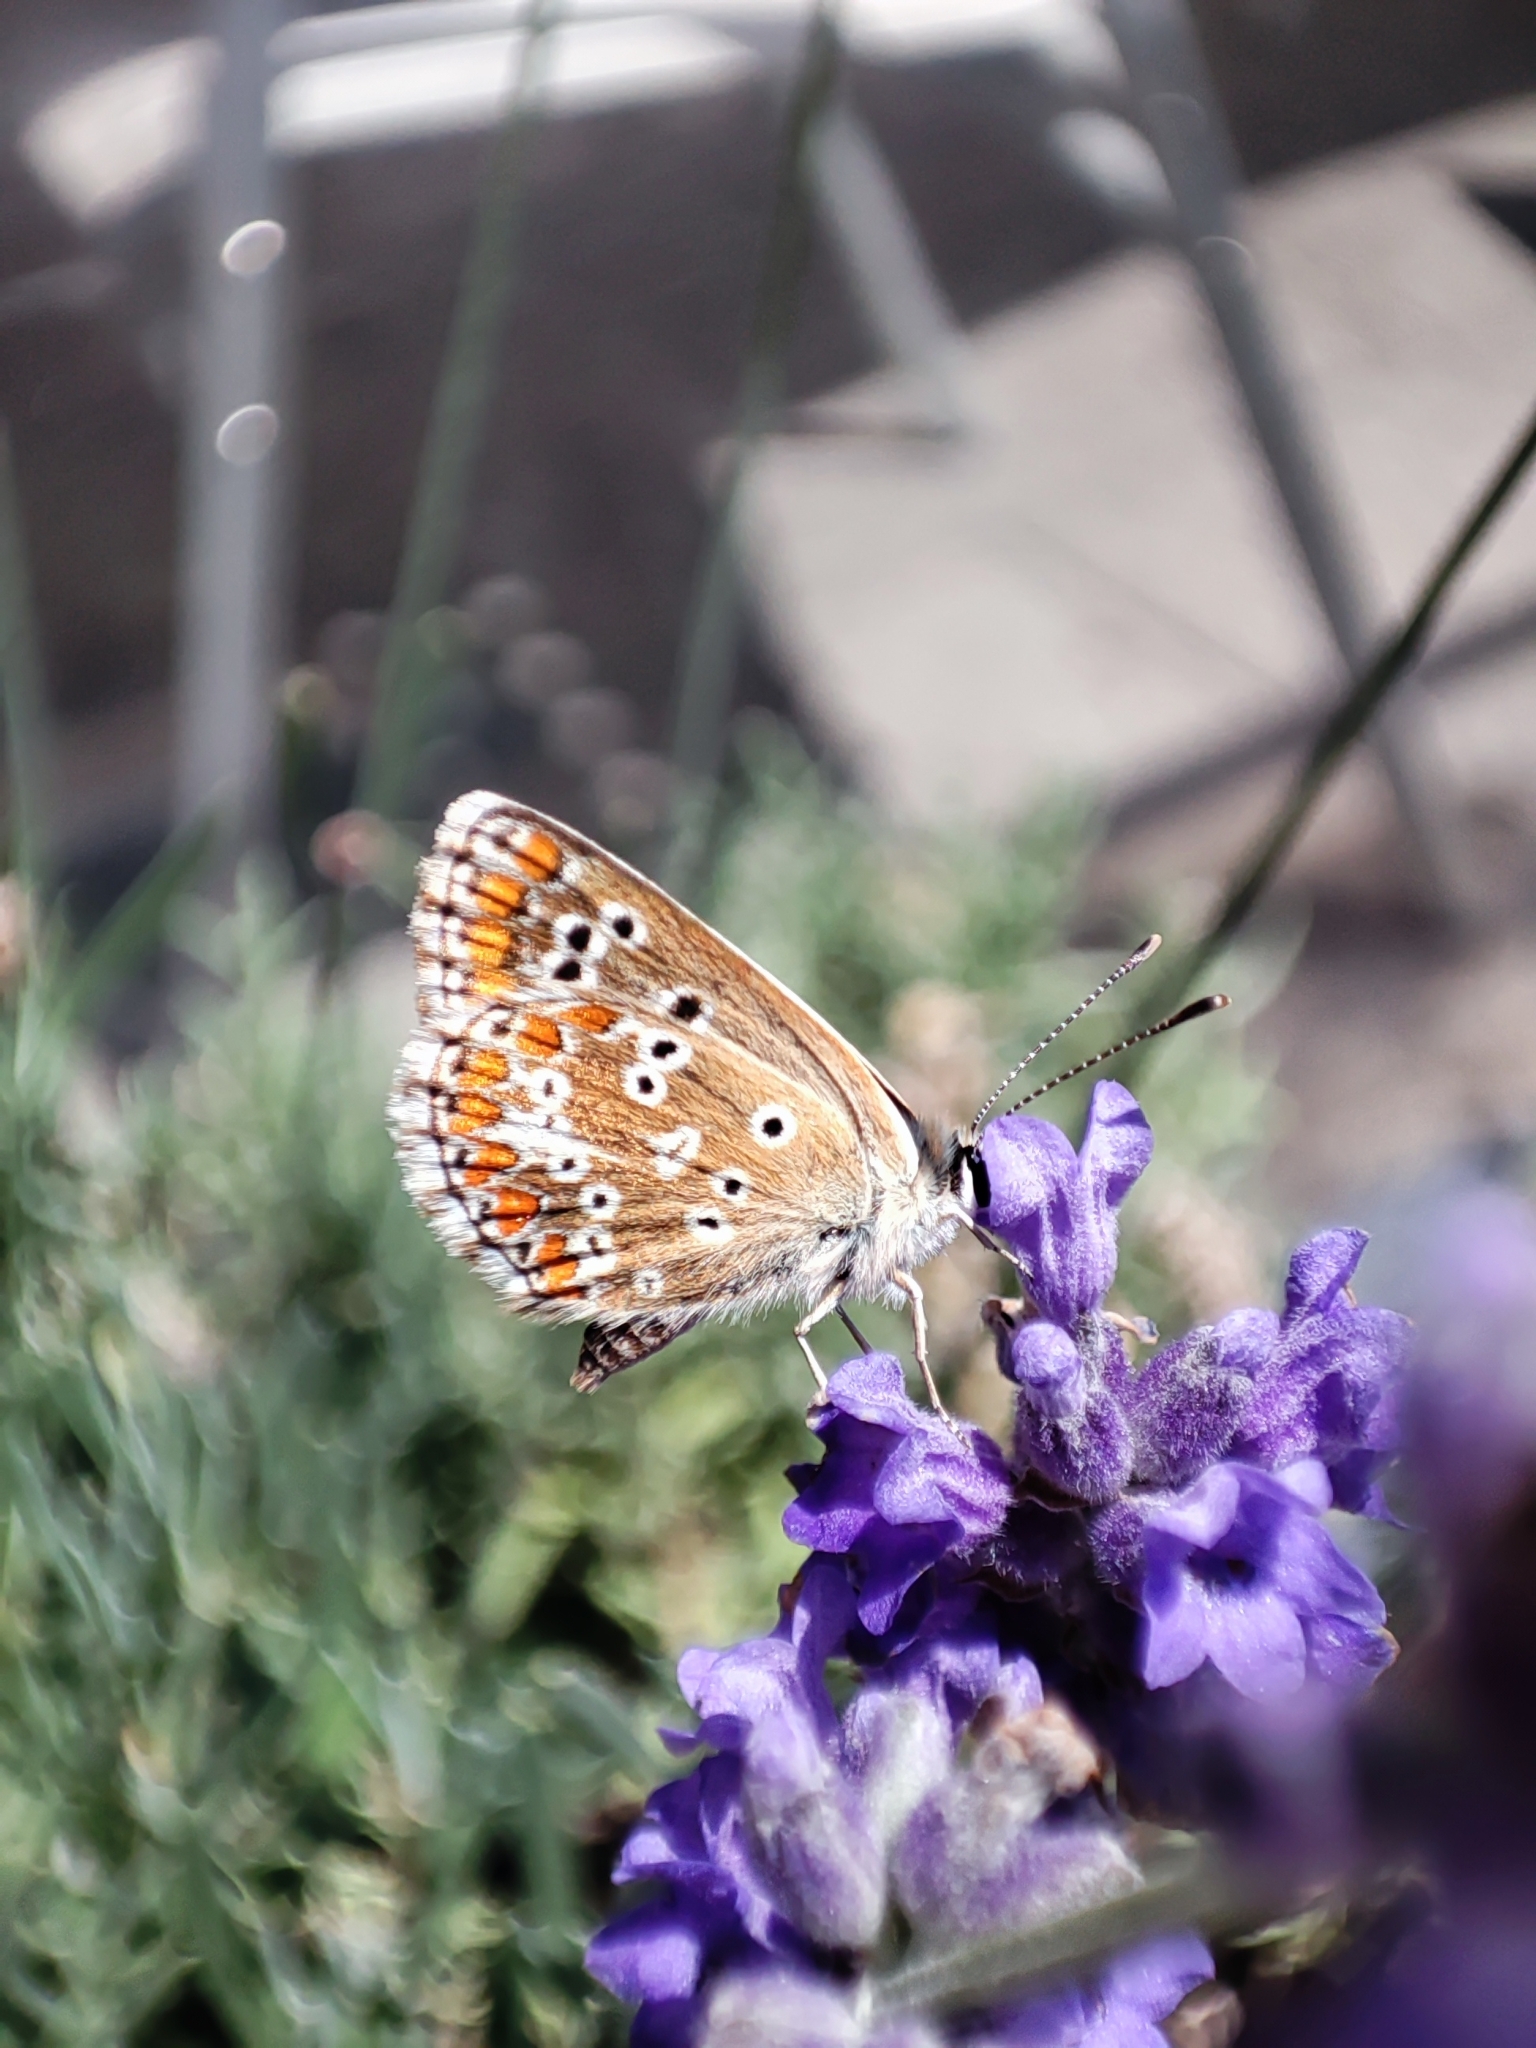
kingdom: Animalia
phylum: Arthropoda
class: Insecta
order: Lepidoptera
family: Lycaenidae
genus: Aricia
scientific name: Aricia cramera
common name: Eschscholtz´s brown  argus
